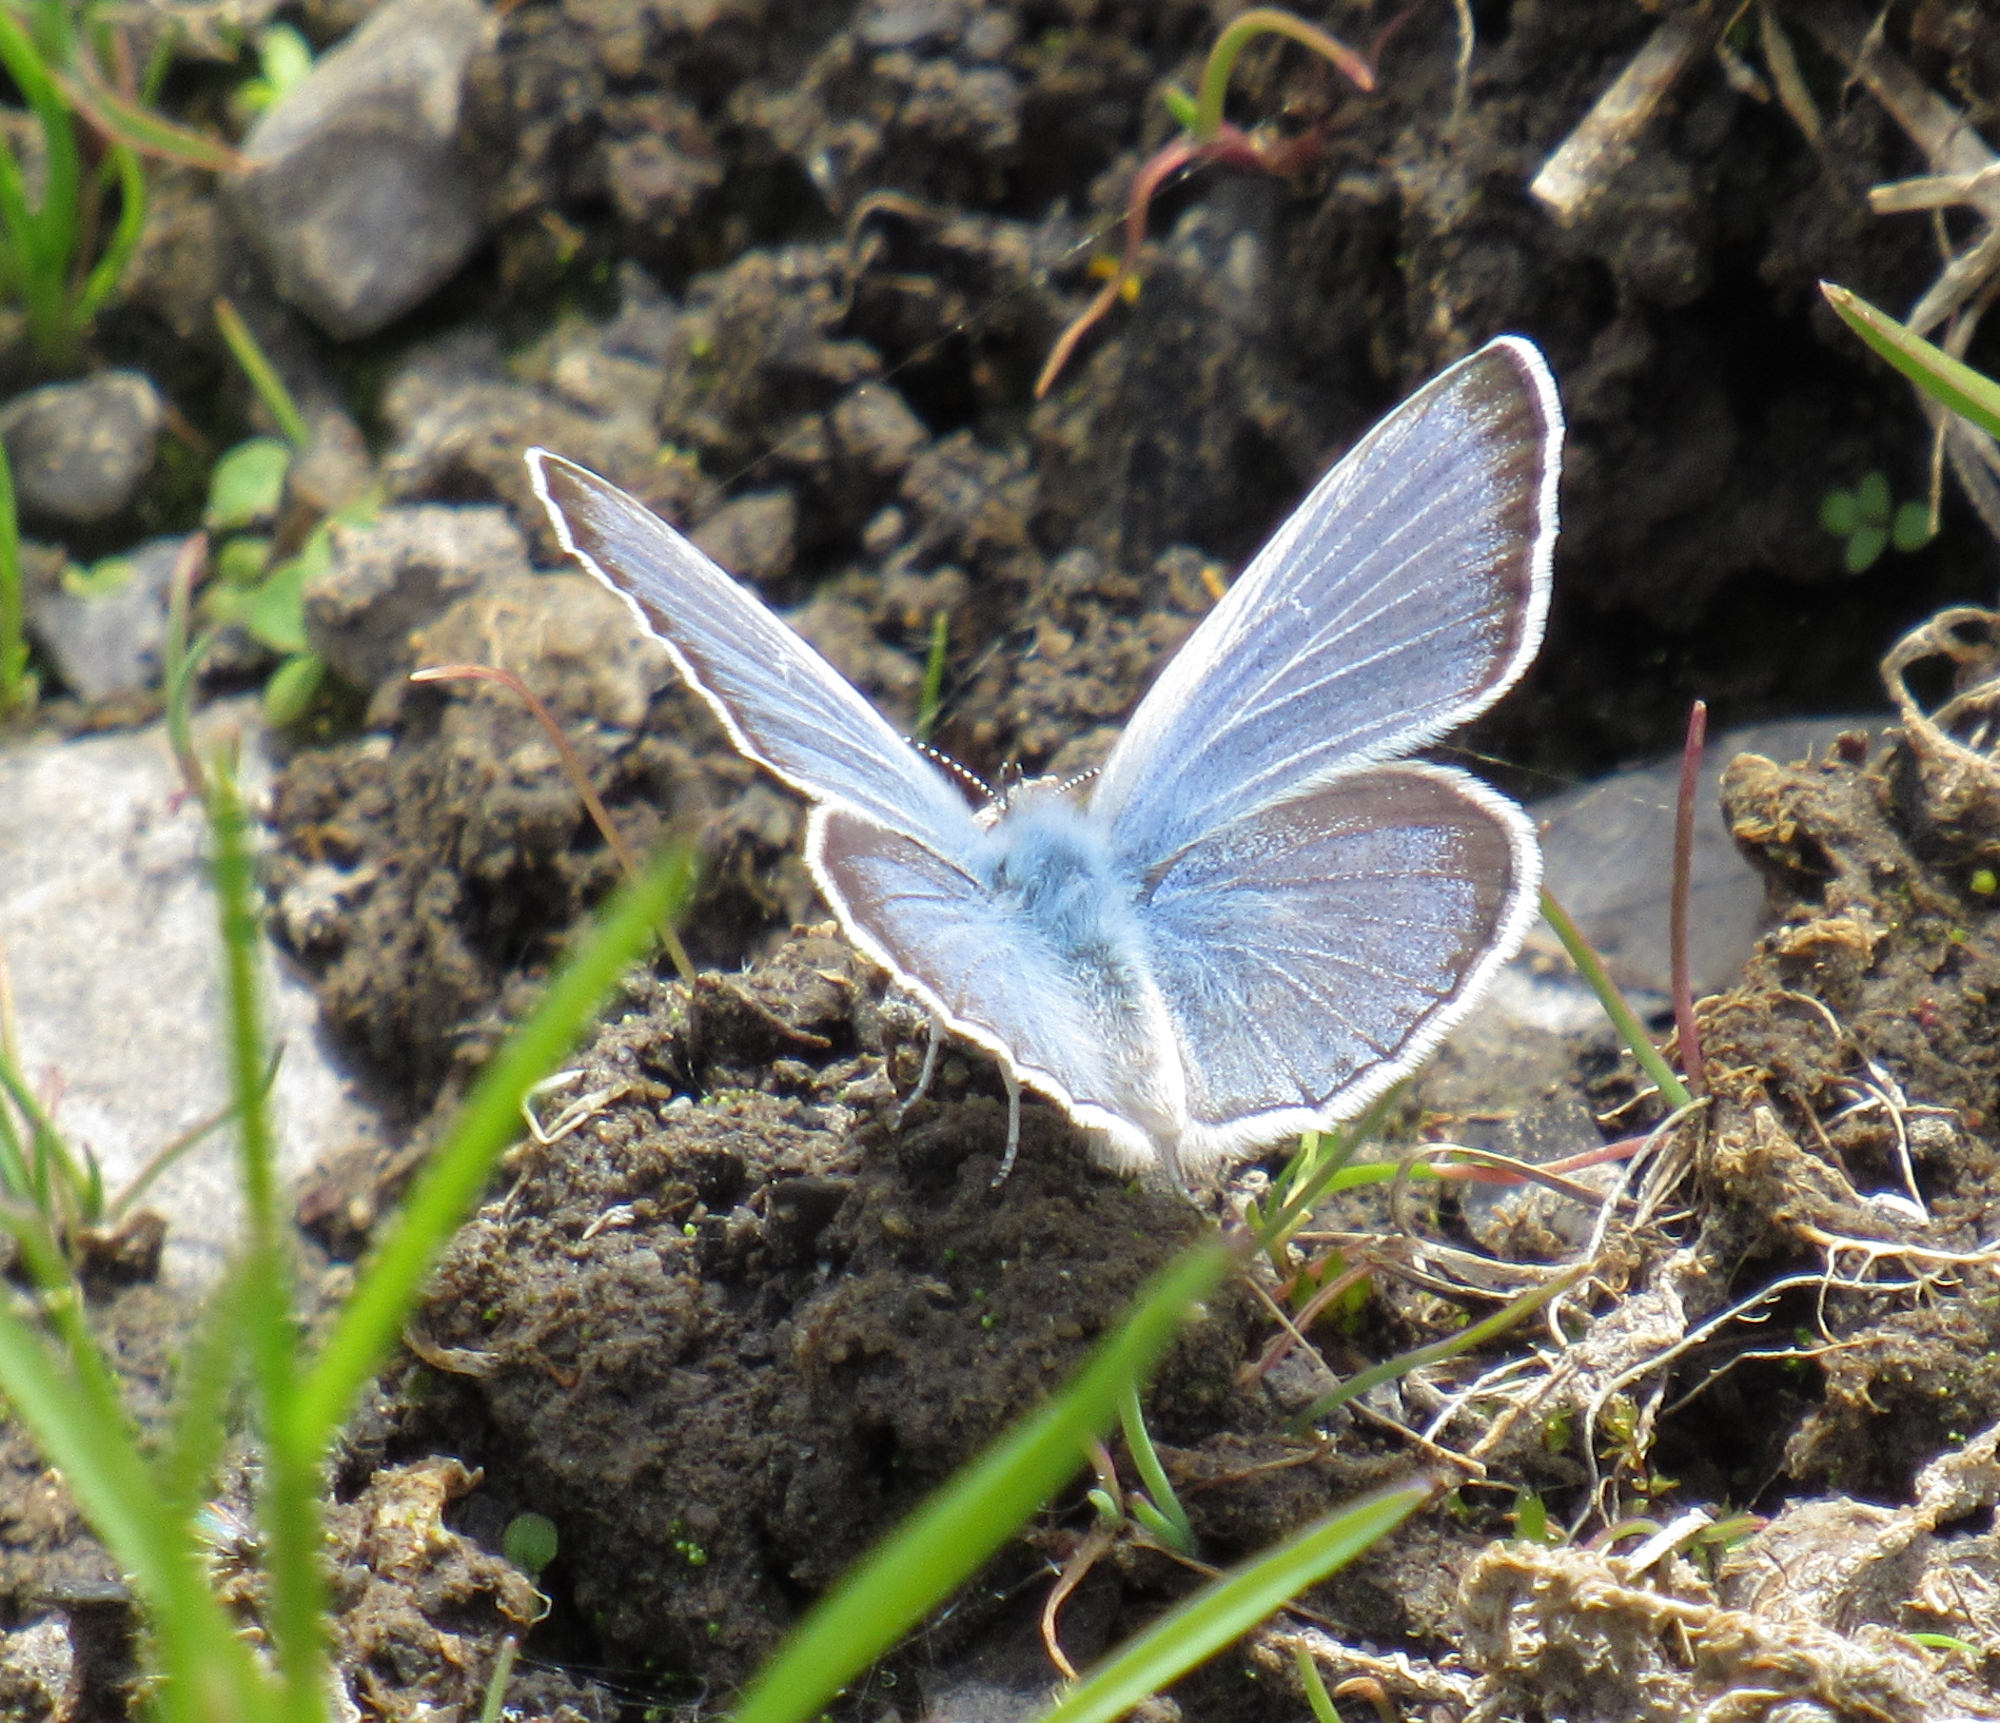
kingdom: Animalia
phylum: Arthropoda
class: Insecta
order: Lepidoptera
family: Lycaenidae
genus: Icaricia
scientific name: Icaricia icarioides
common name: Boisduval's blue
